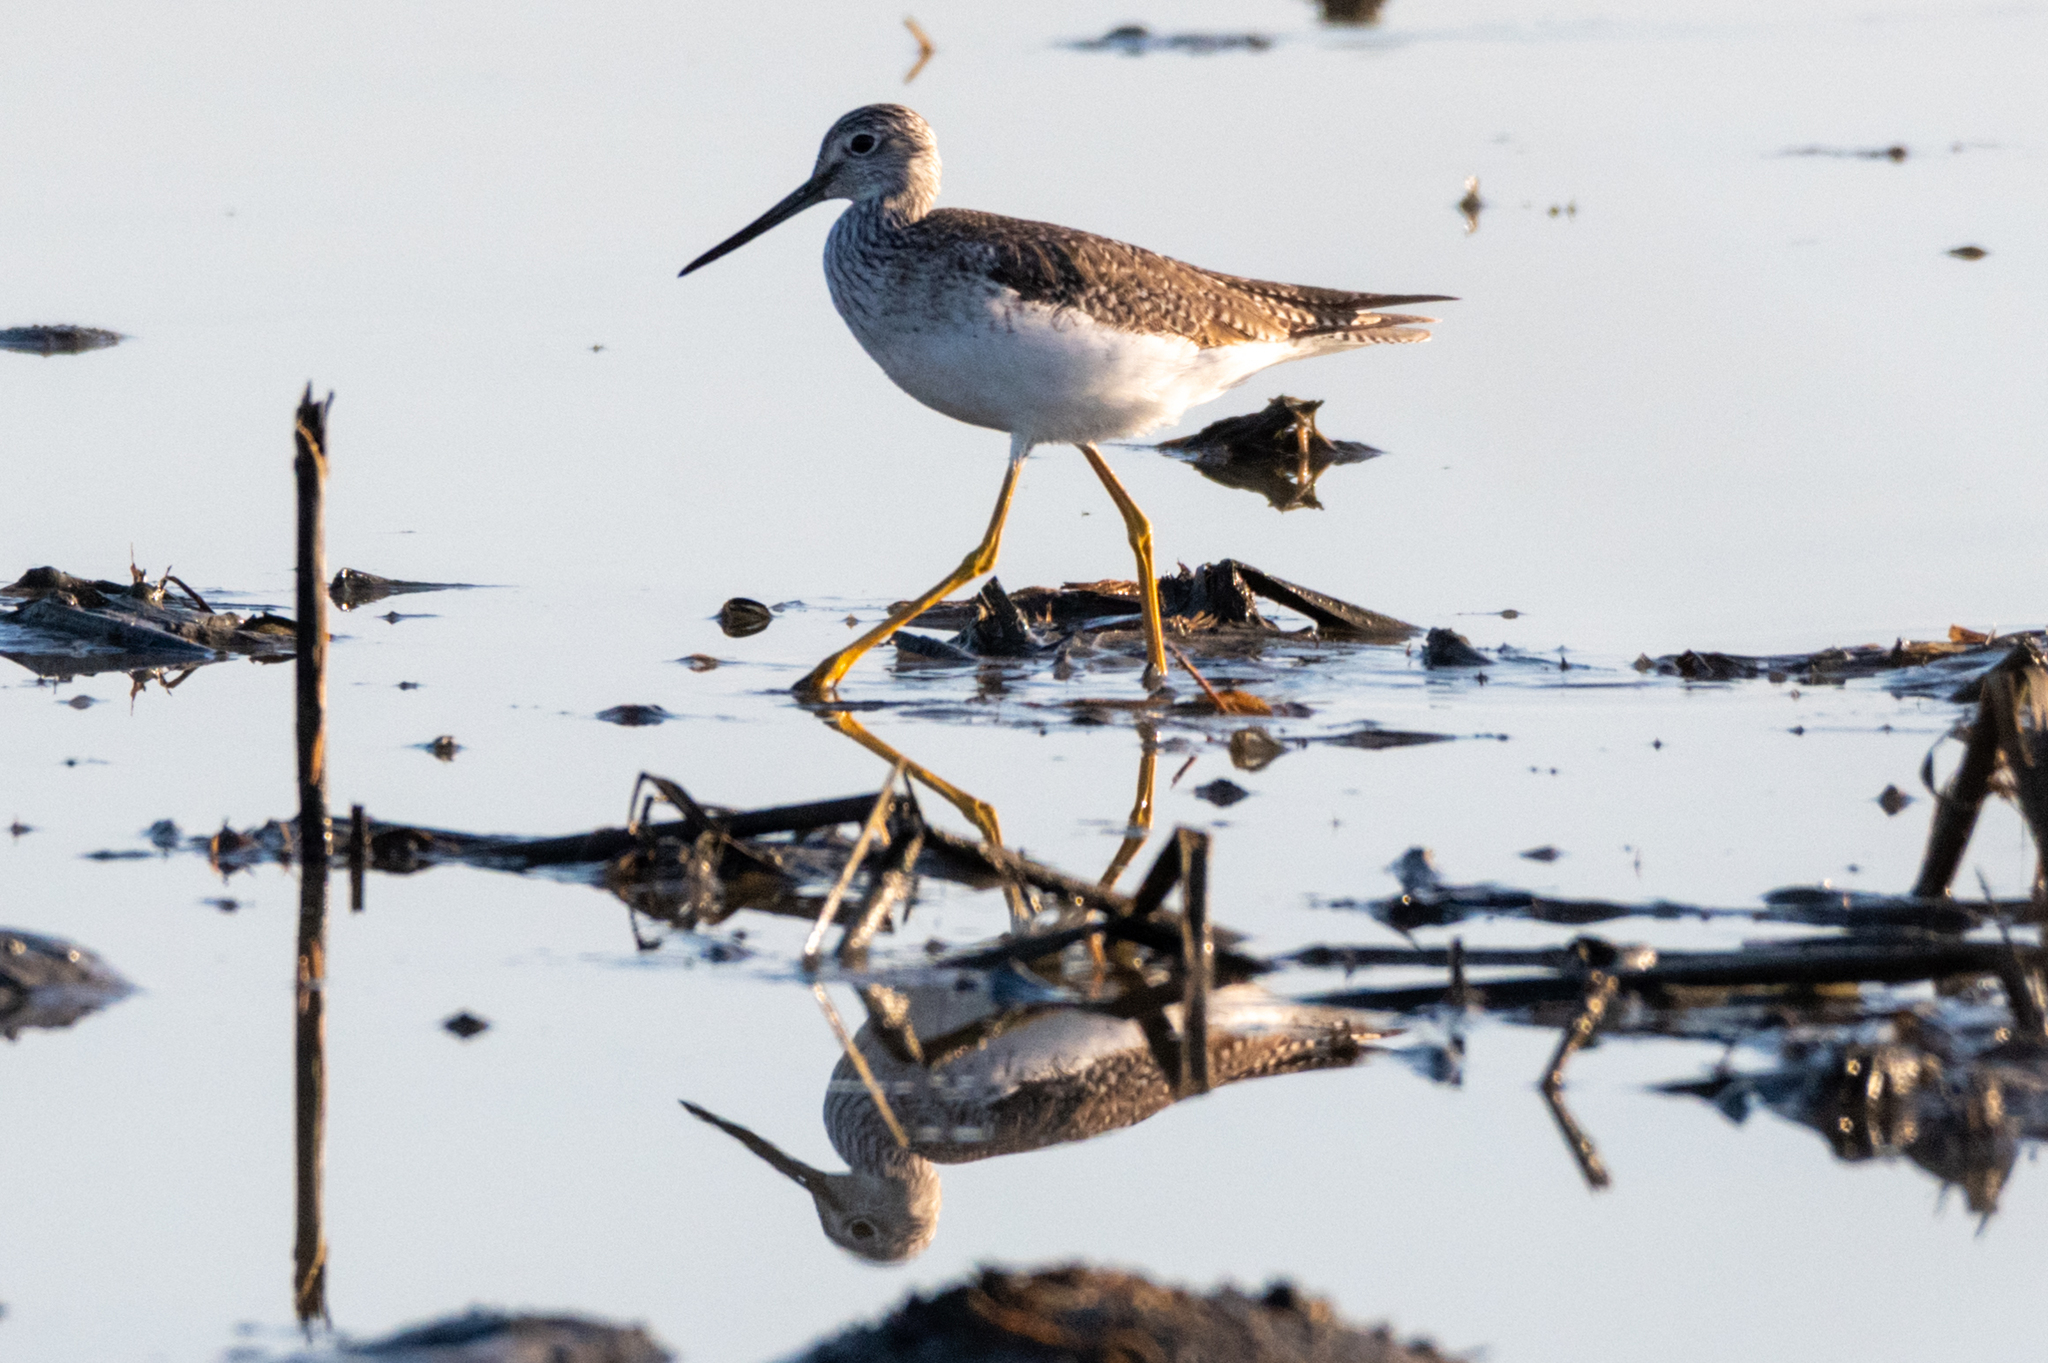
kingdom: Animalia
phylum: Chordata
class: Aves
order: Charadriiformes
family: Scolopacidae
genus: Tringa
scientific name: Tringa melanoleuca
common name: Greater yellowlegs
